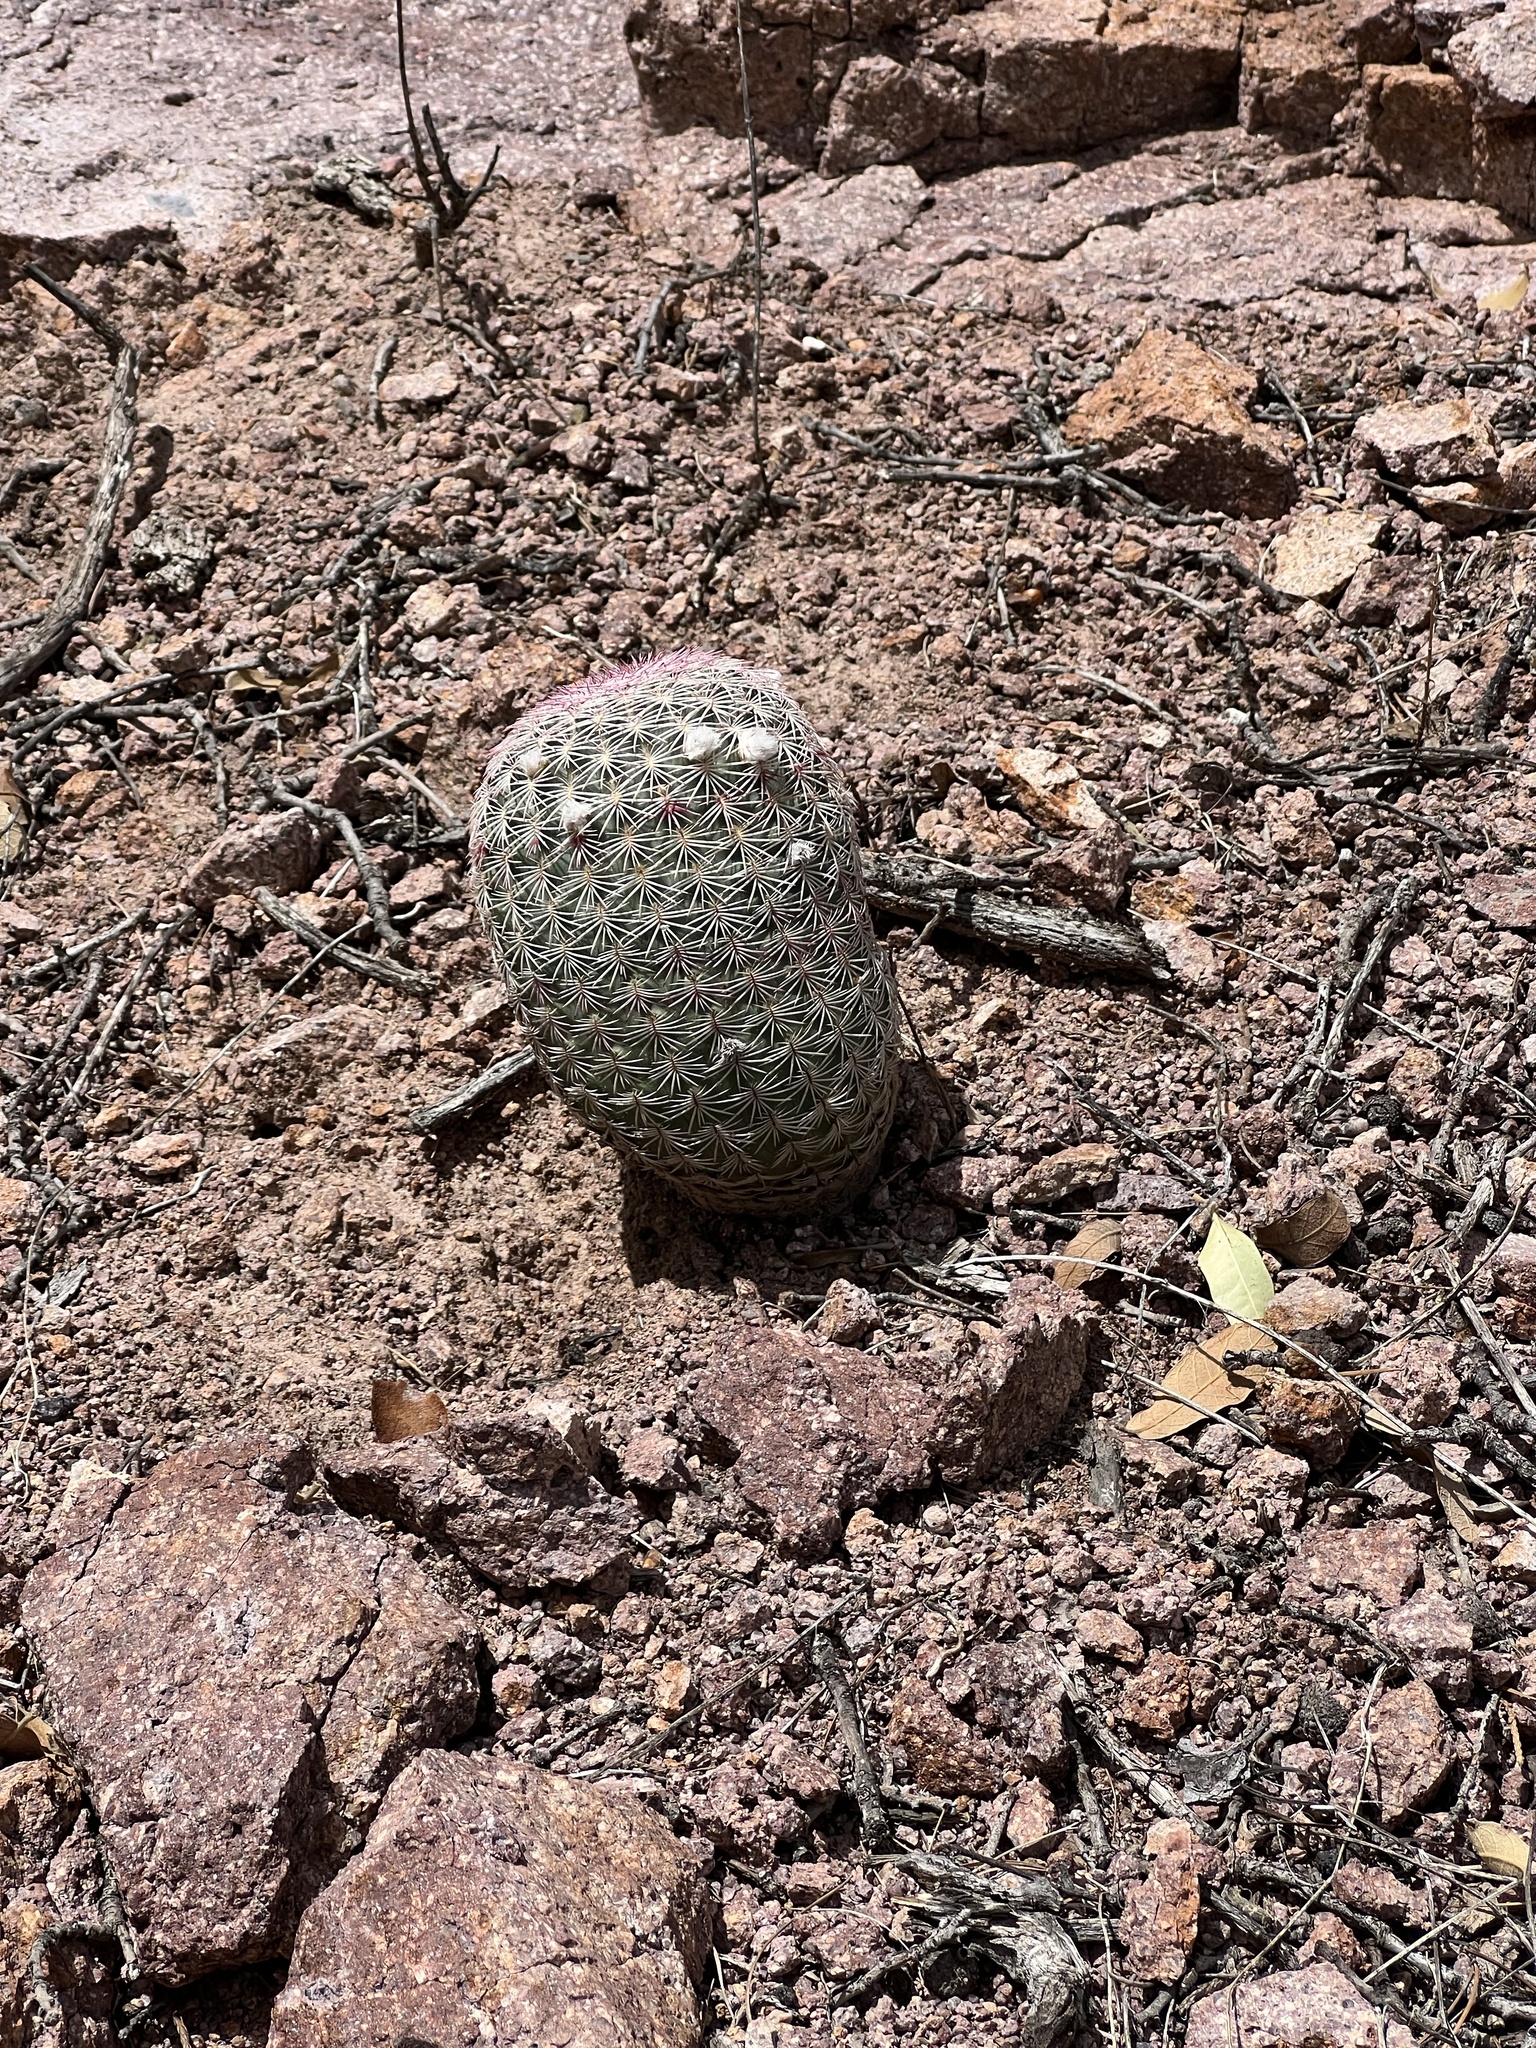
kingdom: Plantae
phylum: Tracheophyta
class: Magnoliopsida
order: Caryophyllales
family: Cactaceae
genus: Echinocereus
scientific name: Echinocereus rigidissimus
